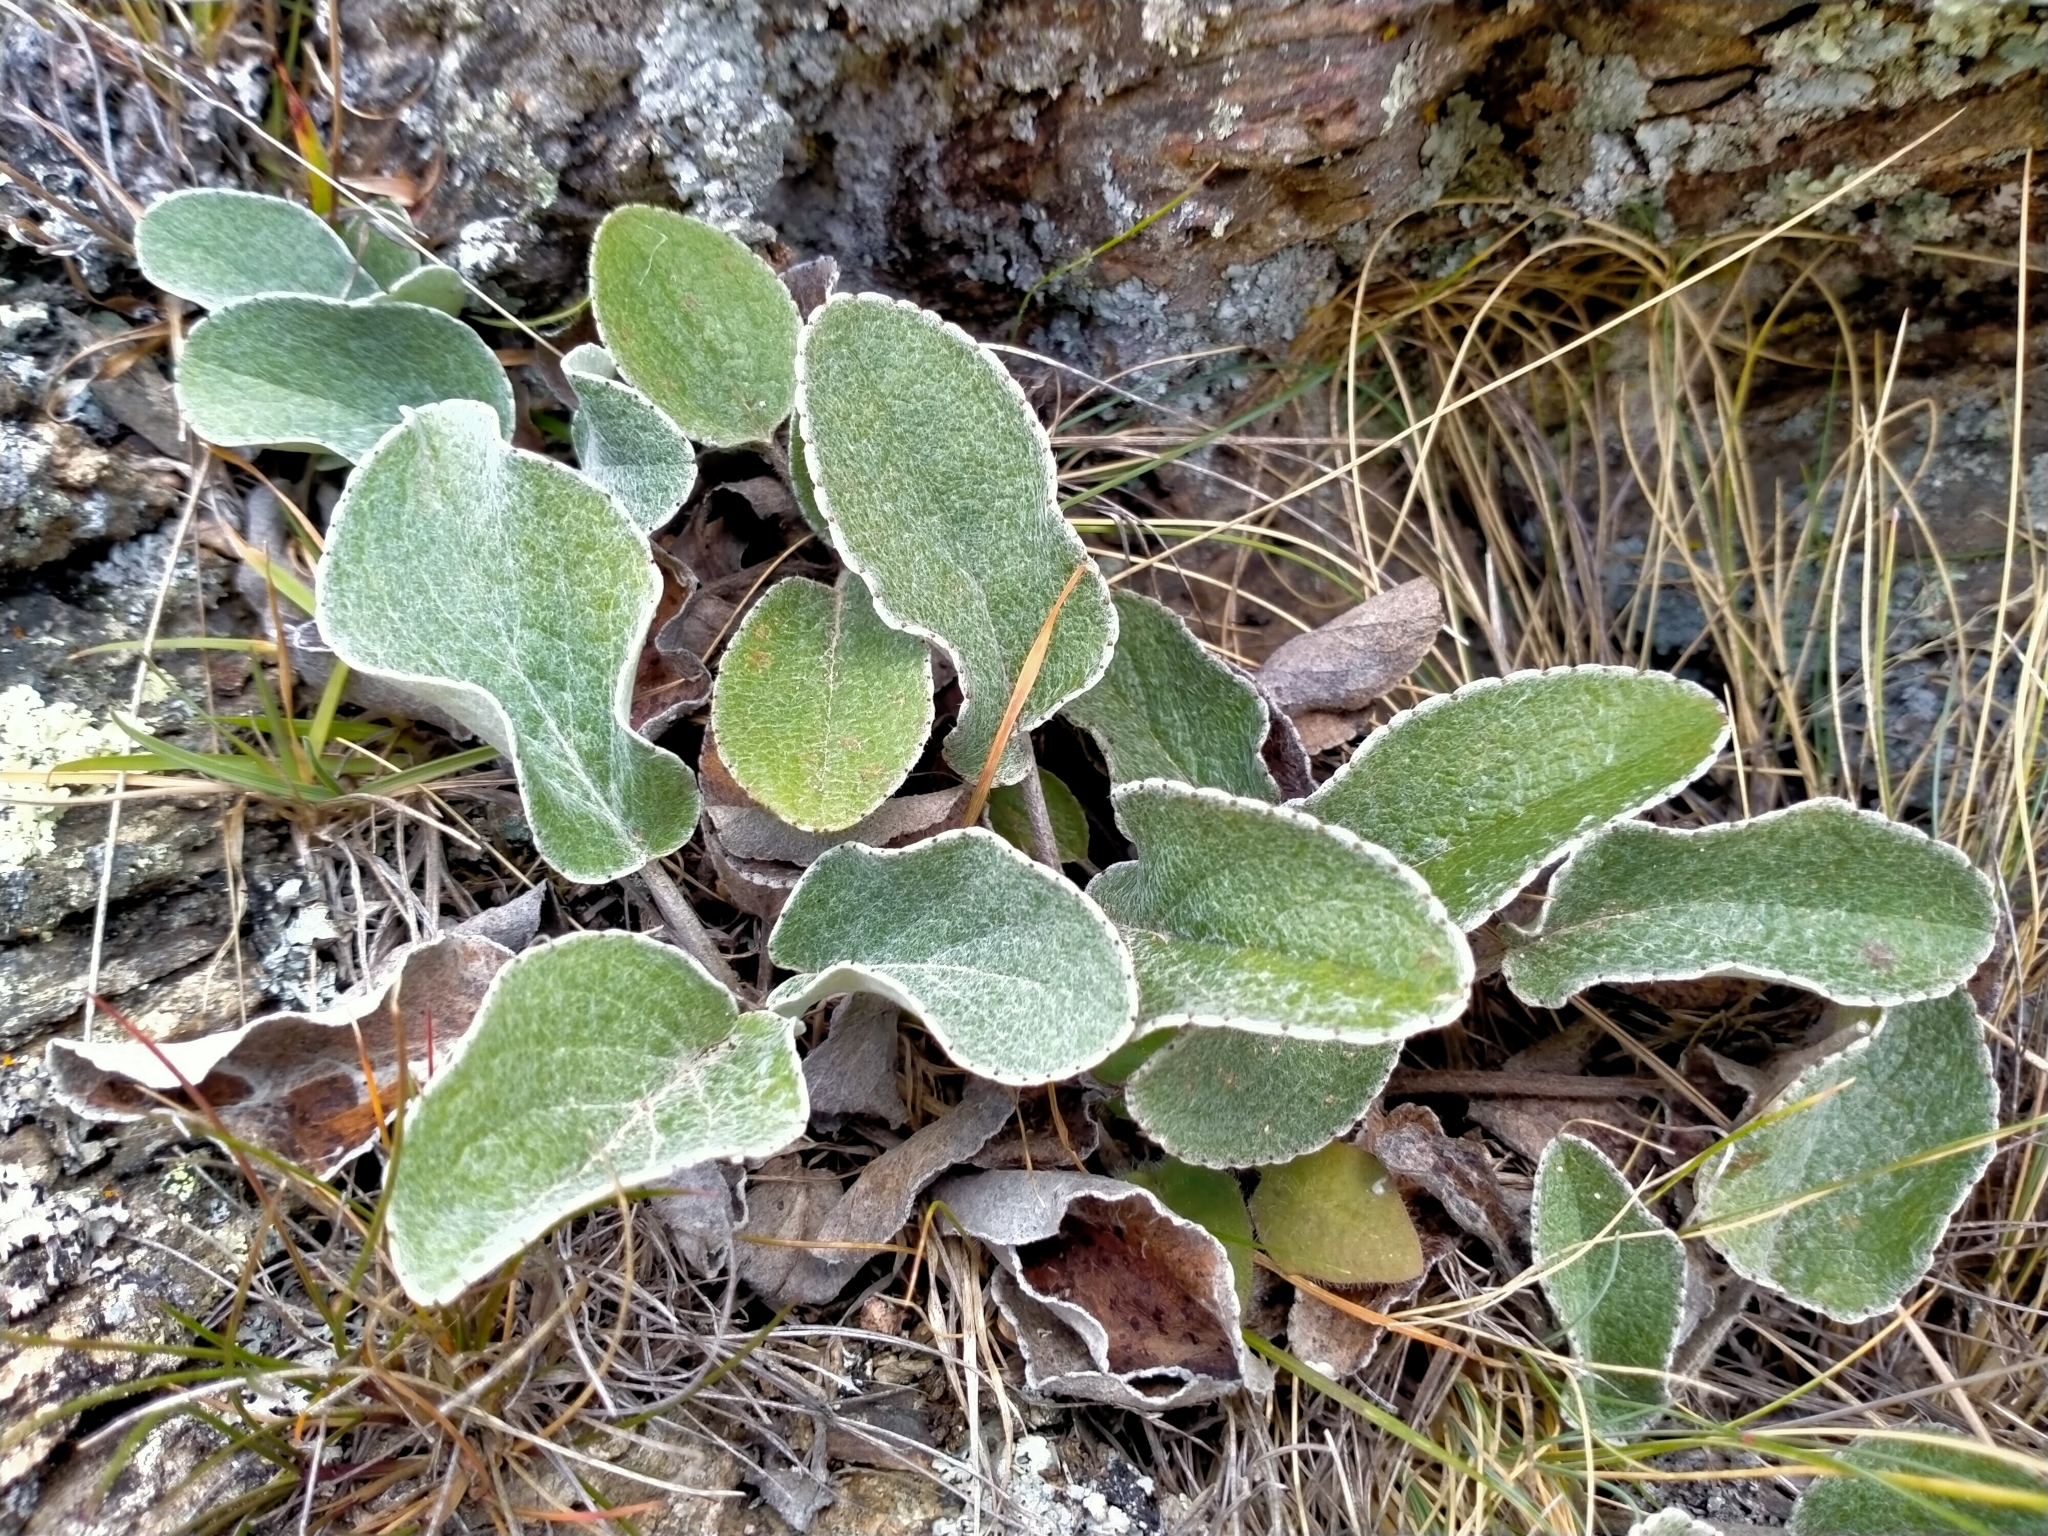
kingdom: Plantae
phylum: Tracheophyta
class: Magnoliopsida
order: Asterales
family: Asteraceae
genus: Brachyglottis
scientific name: Brachyglottis haastii
